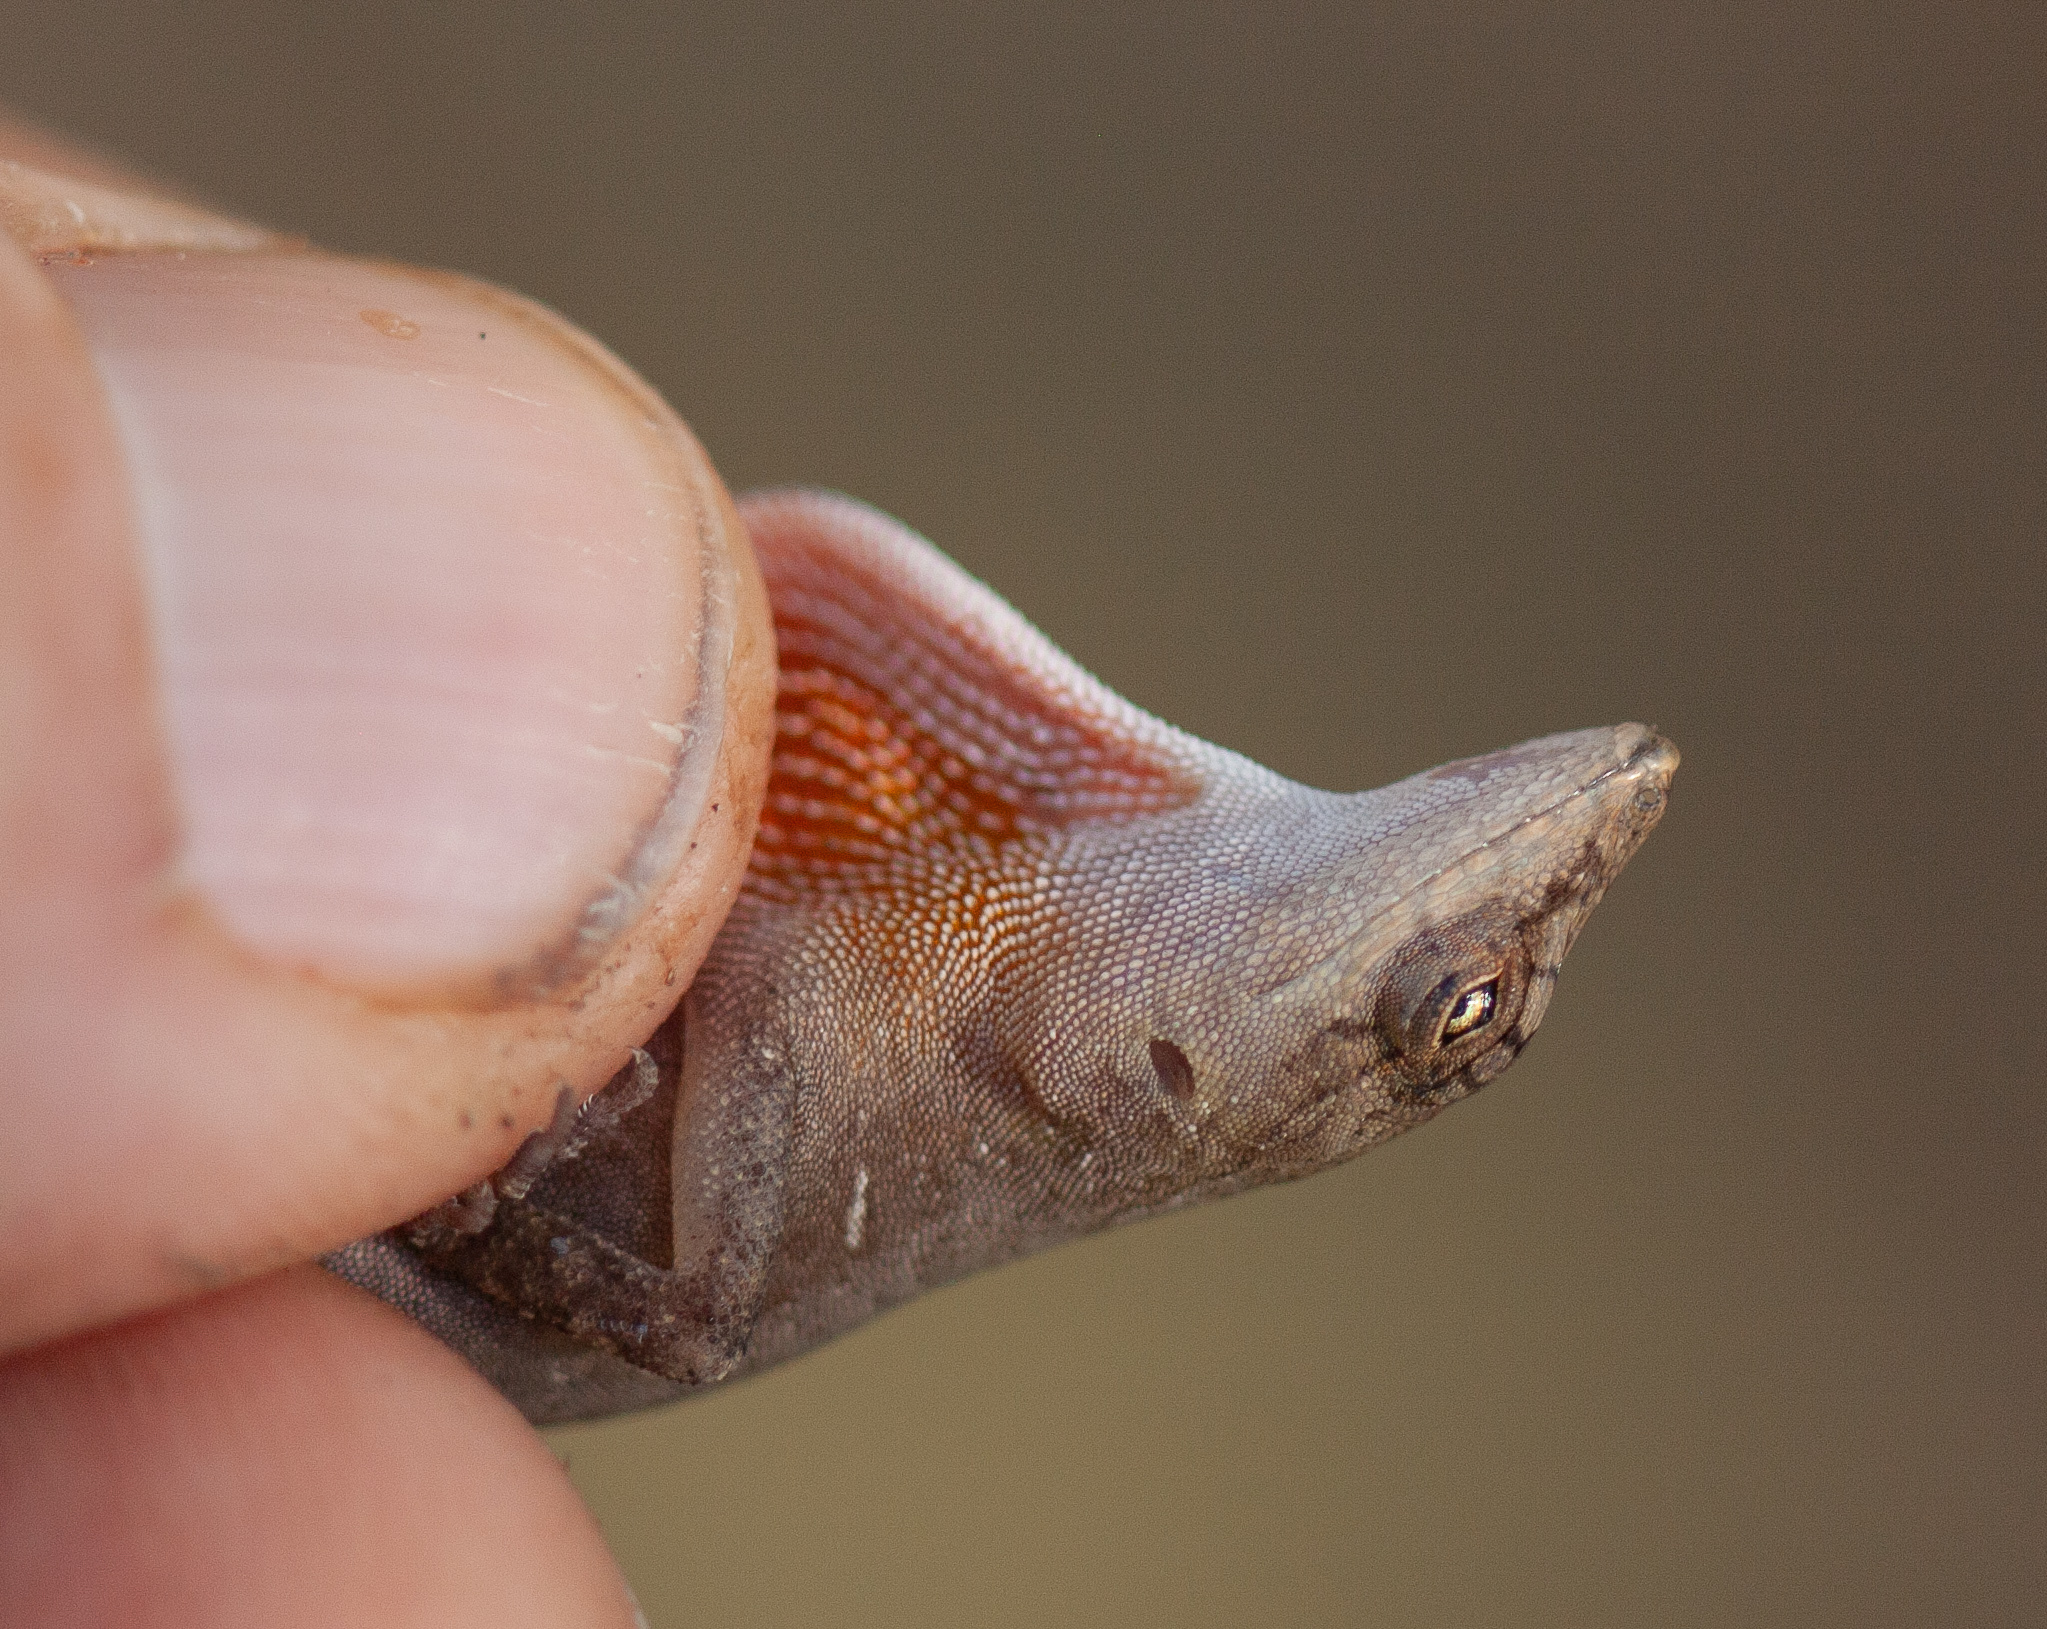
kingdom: Animalia
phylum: Chordata
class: Squamata
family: Dactyloidae
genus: Anolis
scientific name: Anolis cupreus
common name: Copper anole
